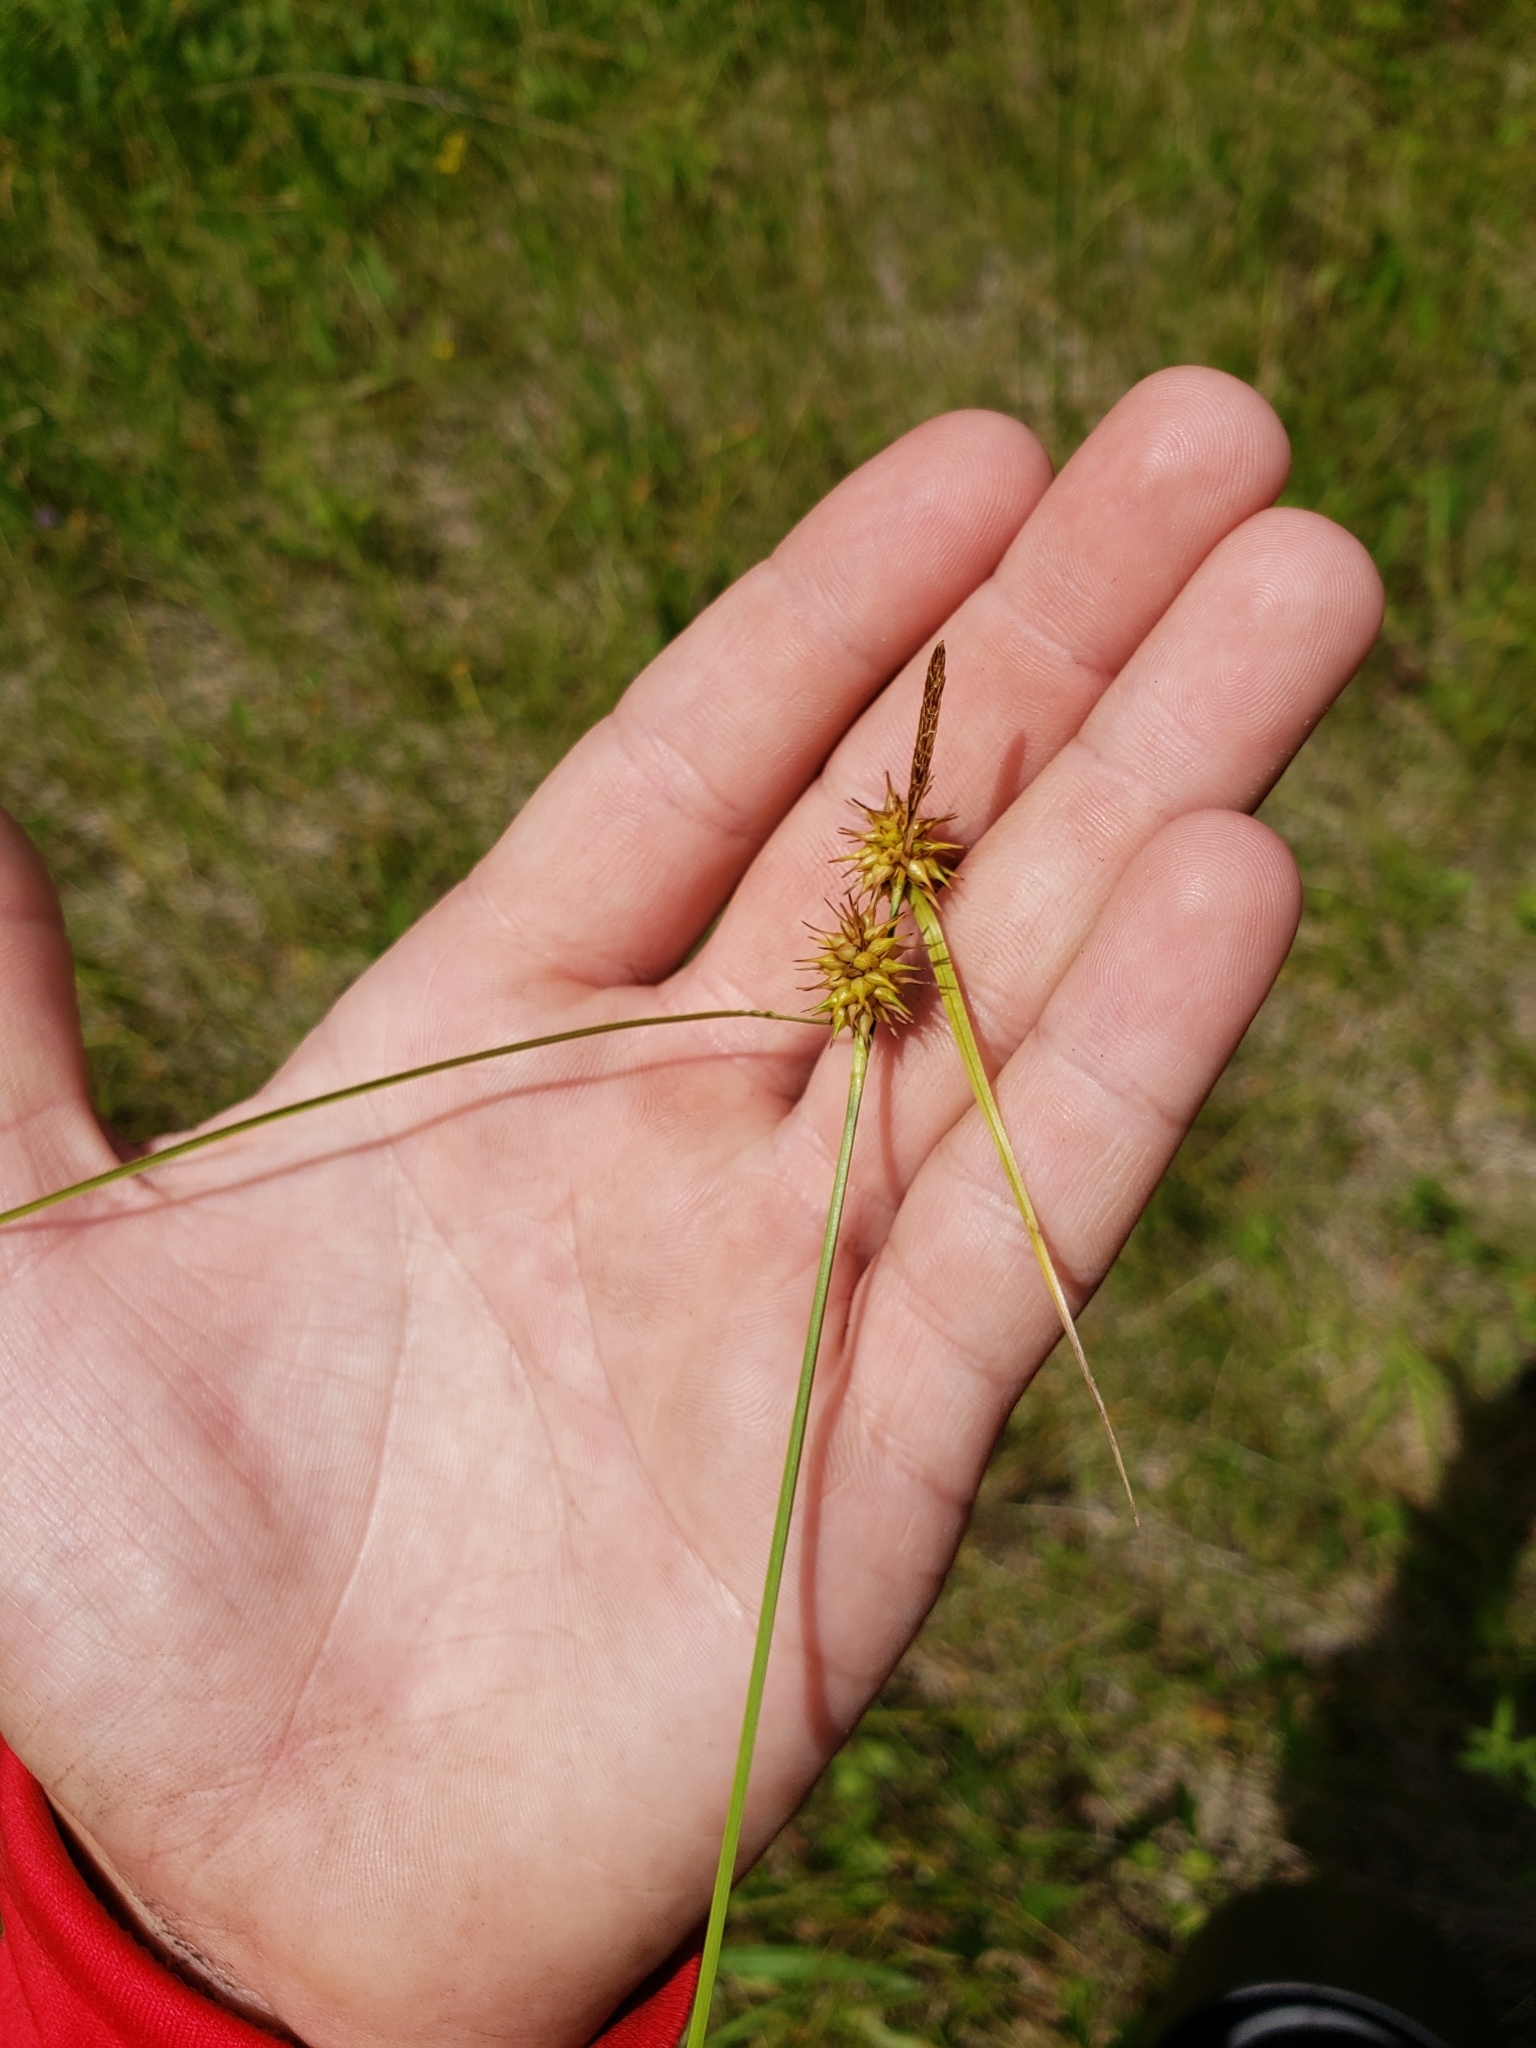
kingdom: Plantae
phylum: Tracheophyta
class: Liliopsida
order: Poales
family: Cyperaceae
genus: Carex
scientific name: Carex flava
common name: Large yellow-sedge
